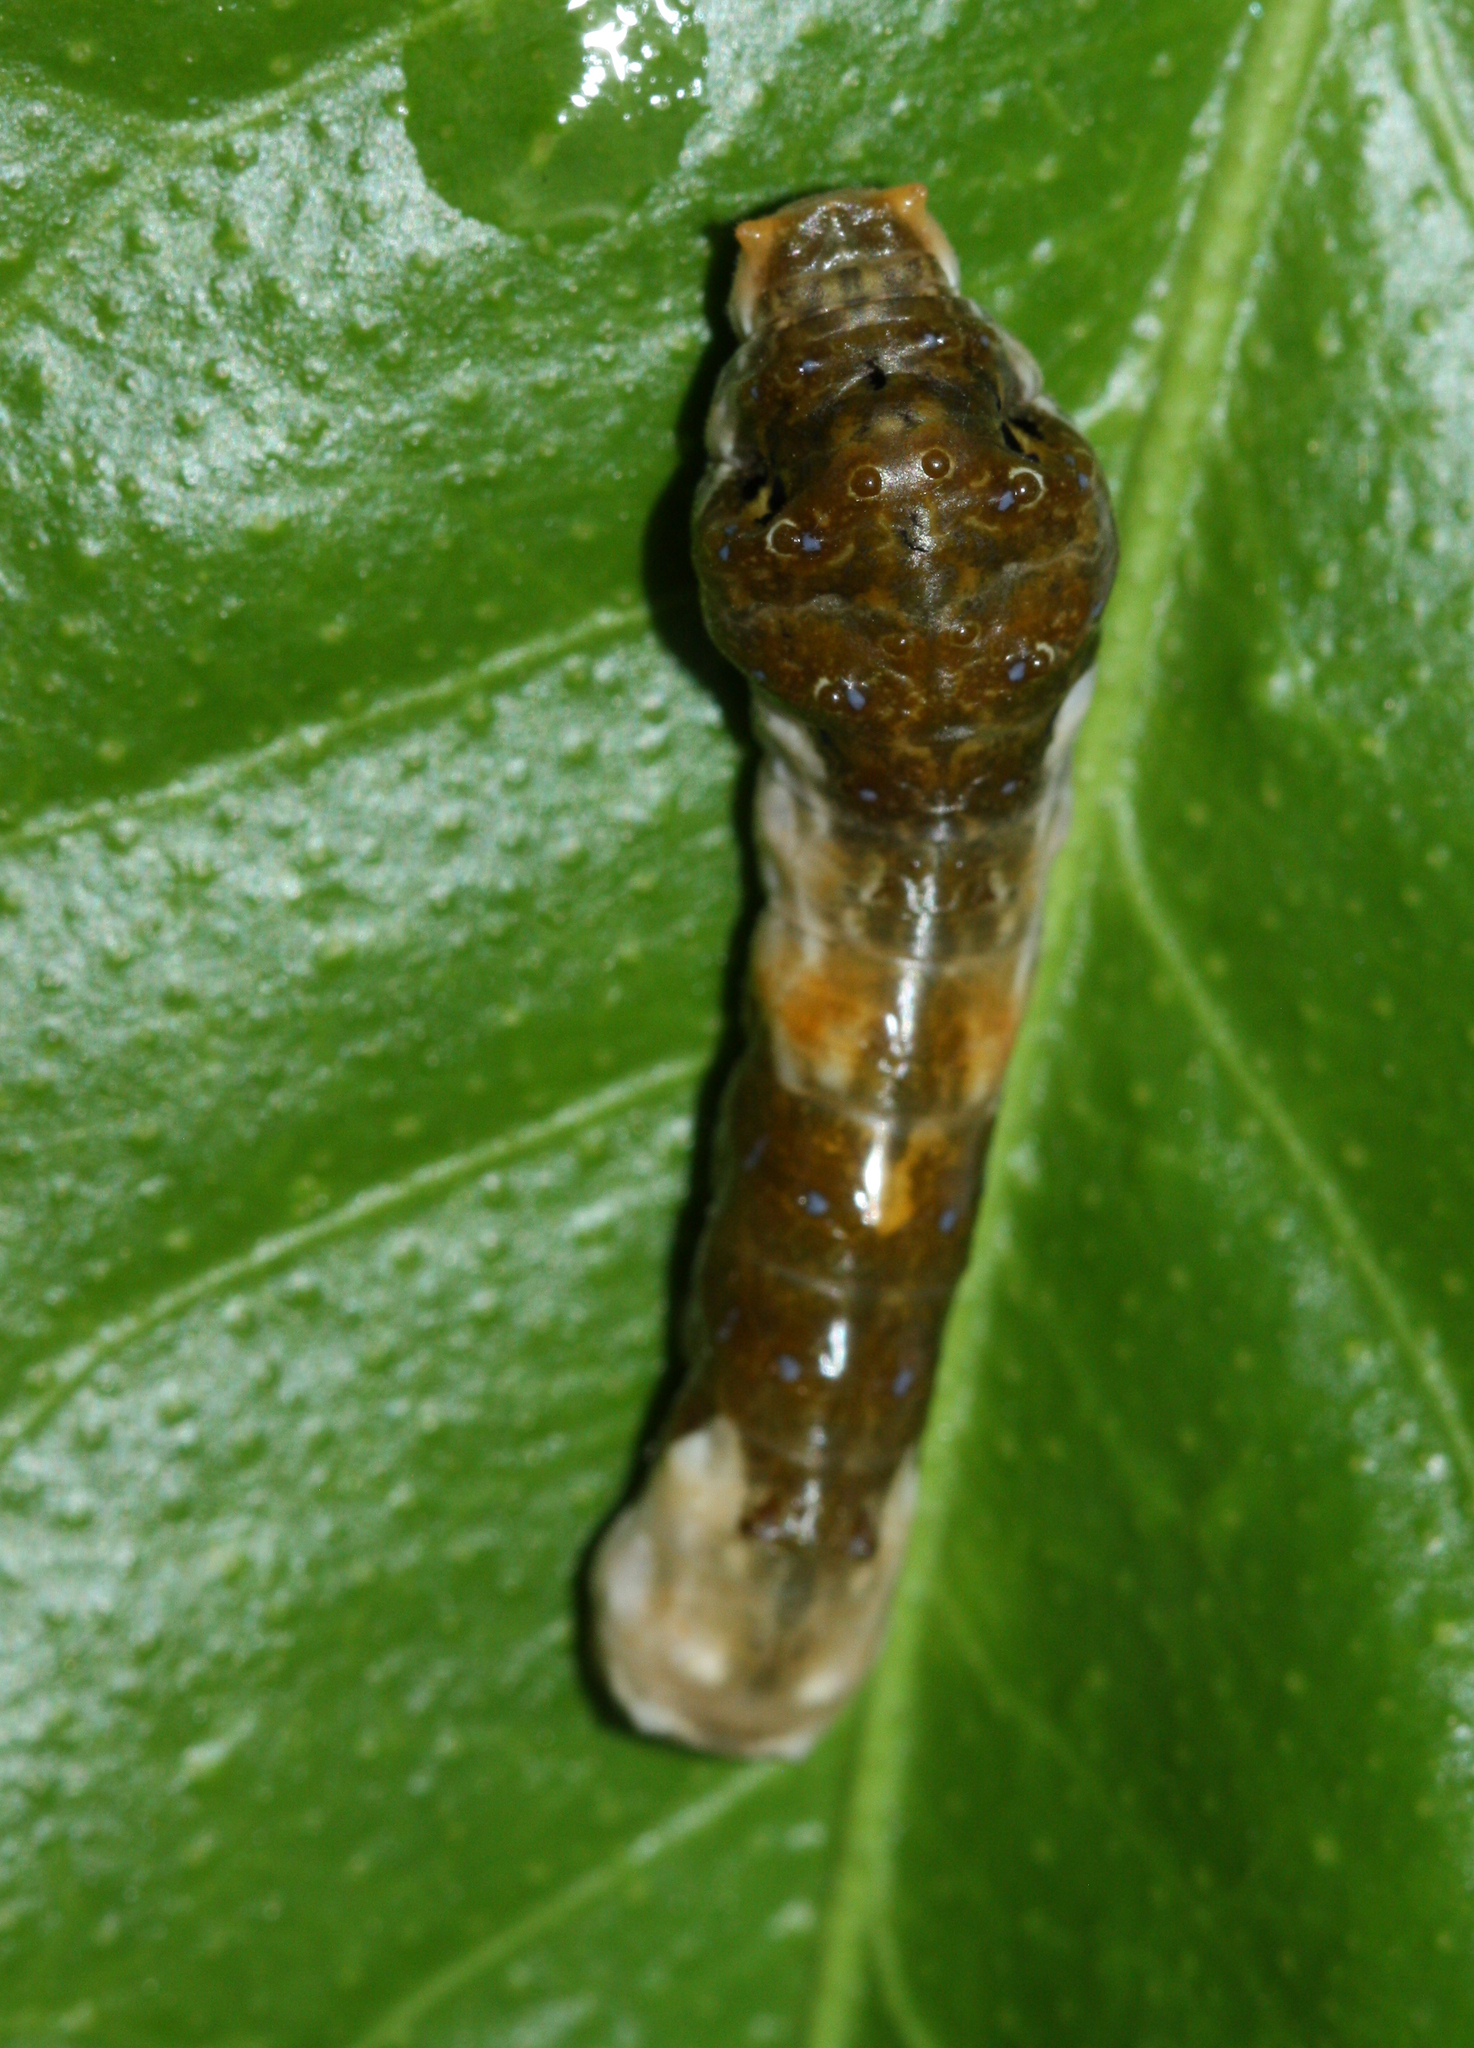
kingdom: Animalia
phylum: Arthropoda
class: Insecta
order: Lepidoptera
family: Papilionidae
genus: Papilio
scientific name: Papilio rumiko
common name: Western giant swallowtail
